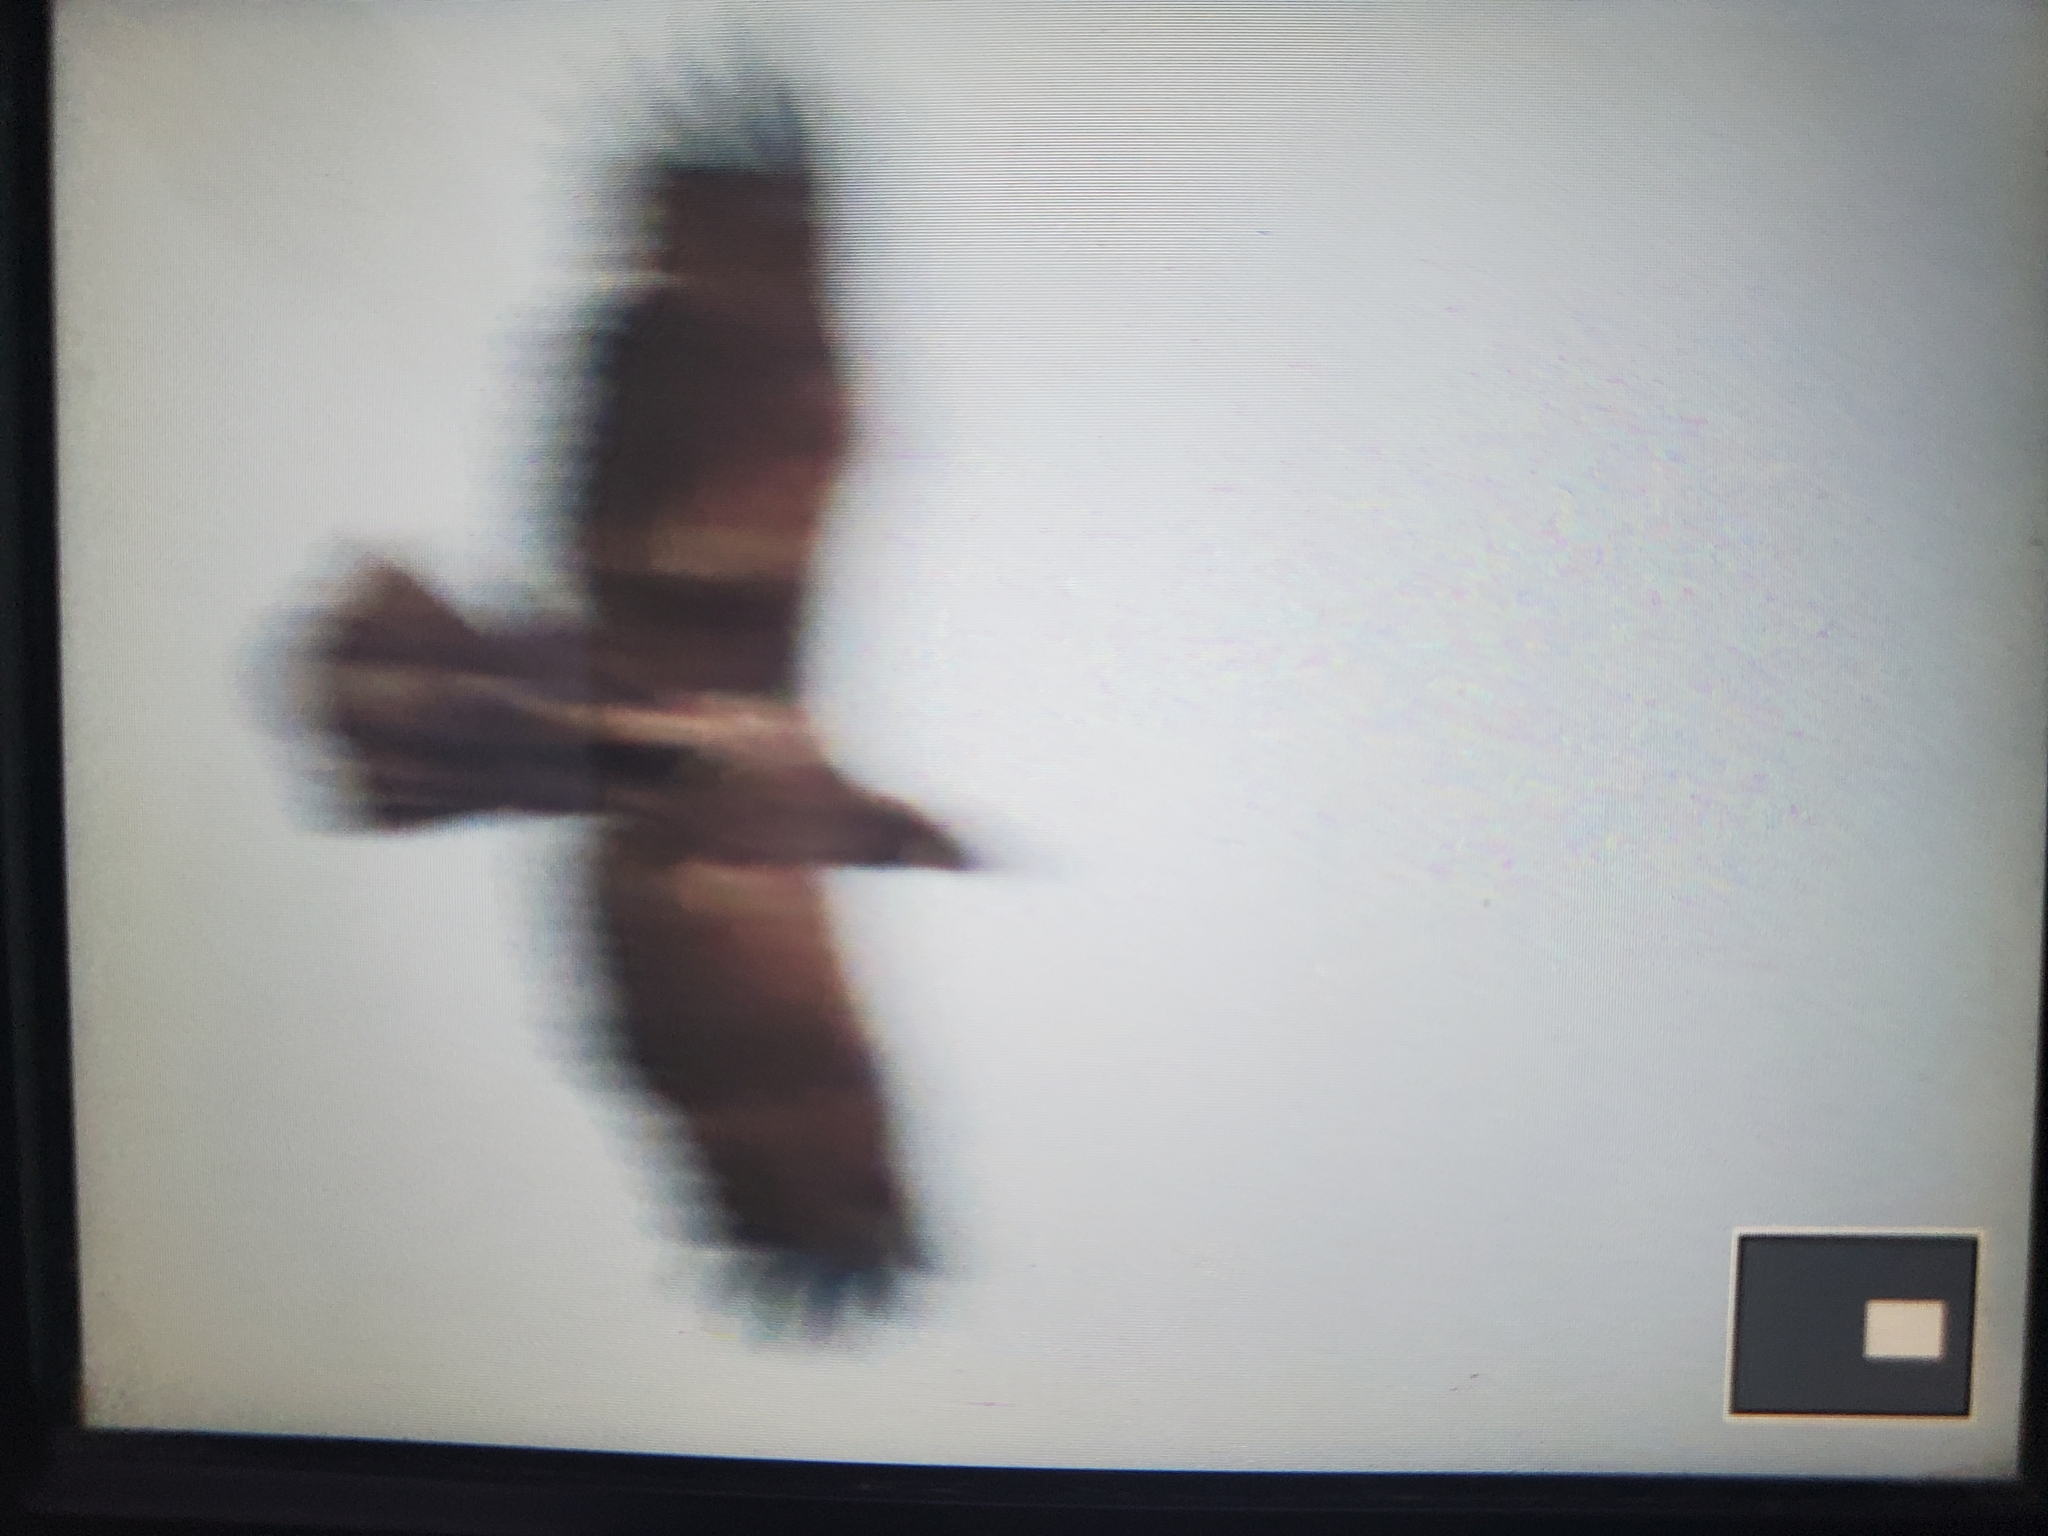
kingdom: Animalia
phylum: Chordata
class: Aves
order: Accipitriformes
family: Accipitridae
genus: Haliaeetus
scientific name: Haliaeetus leucocephalus
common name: Bald eagle
